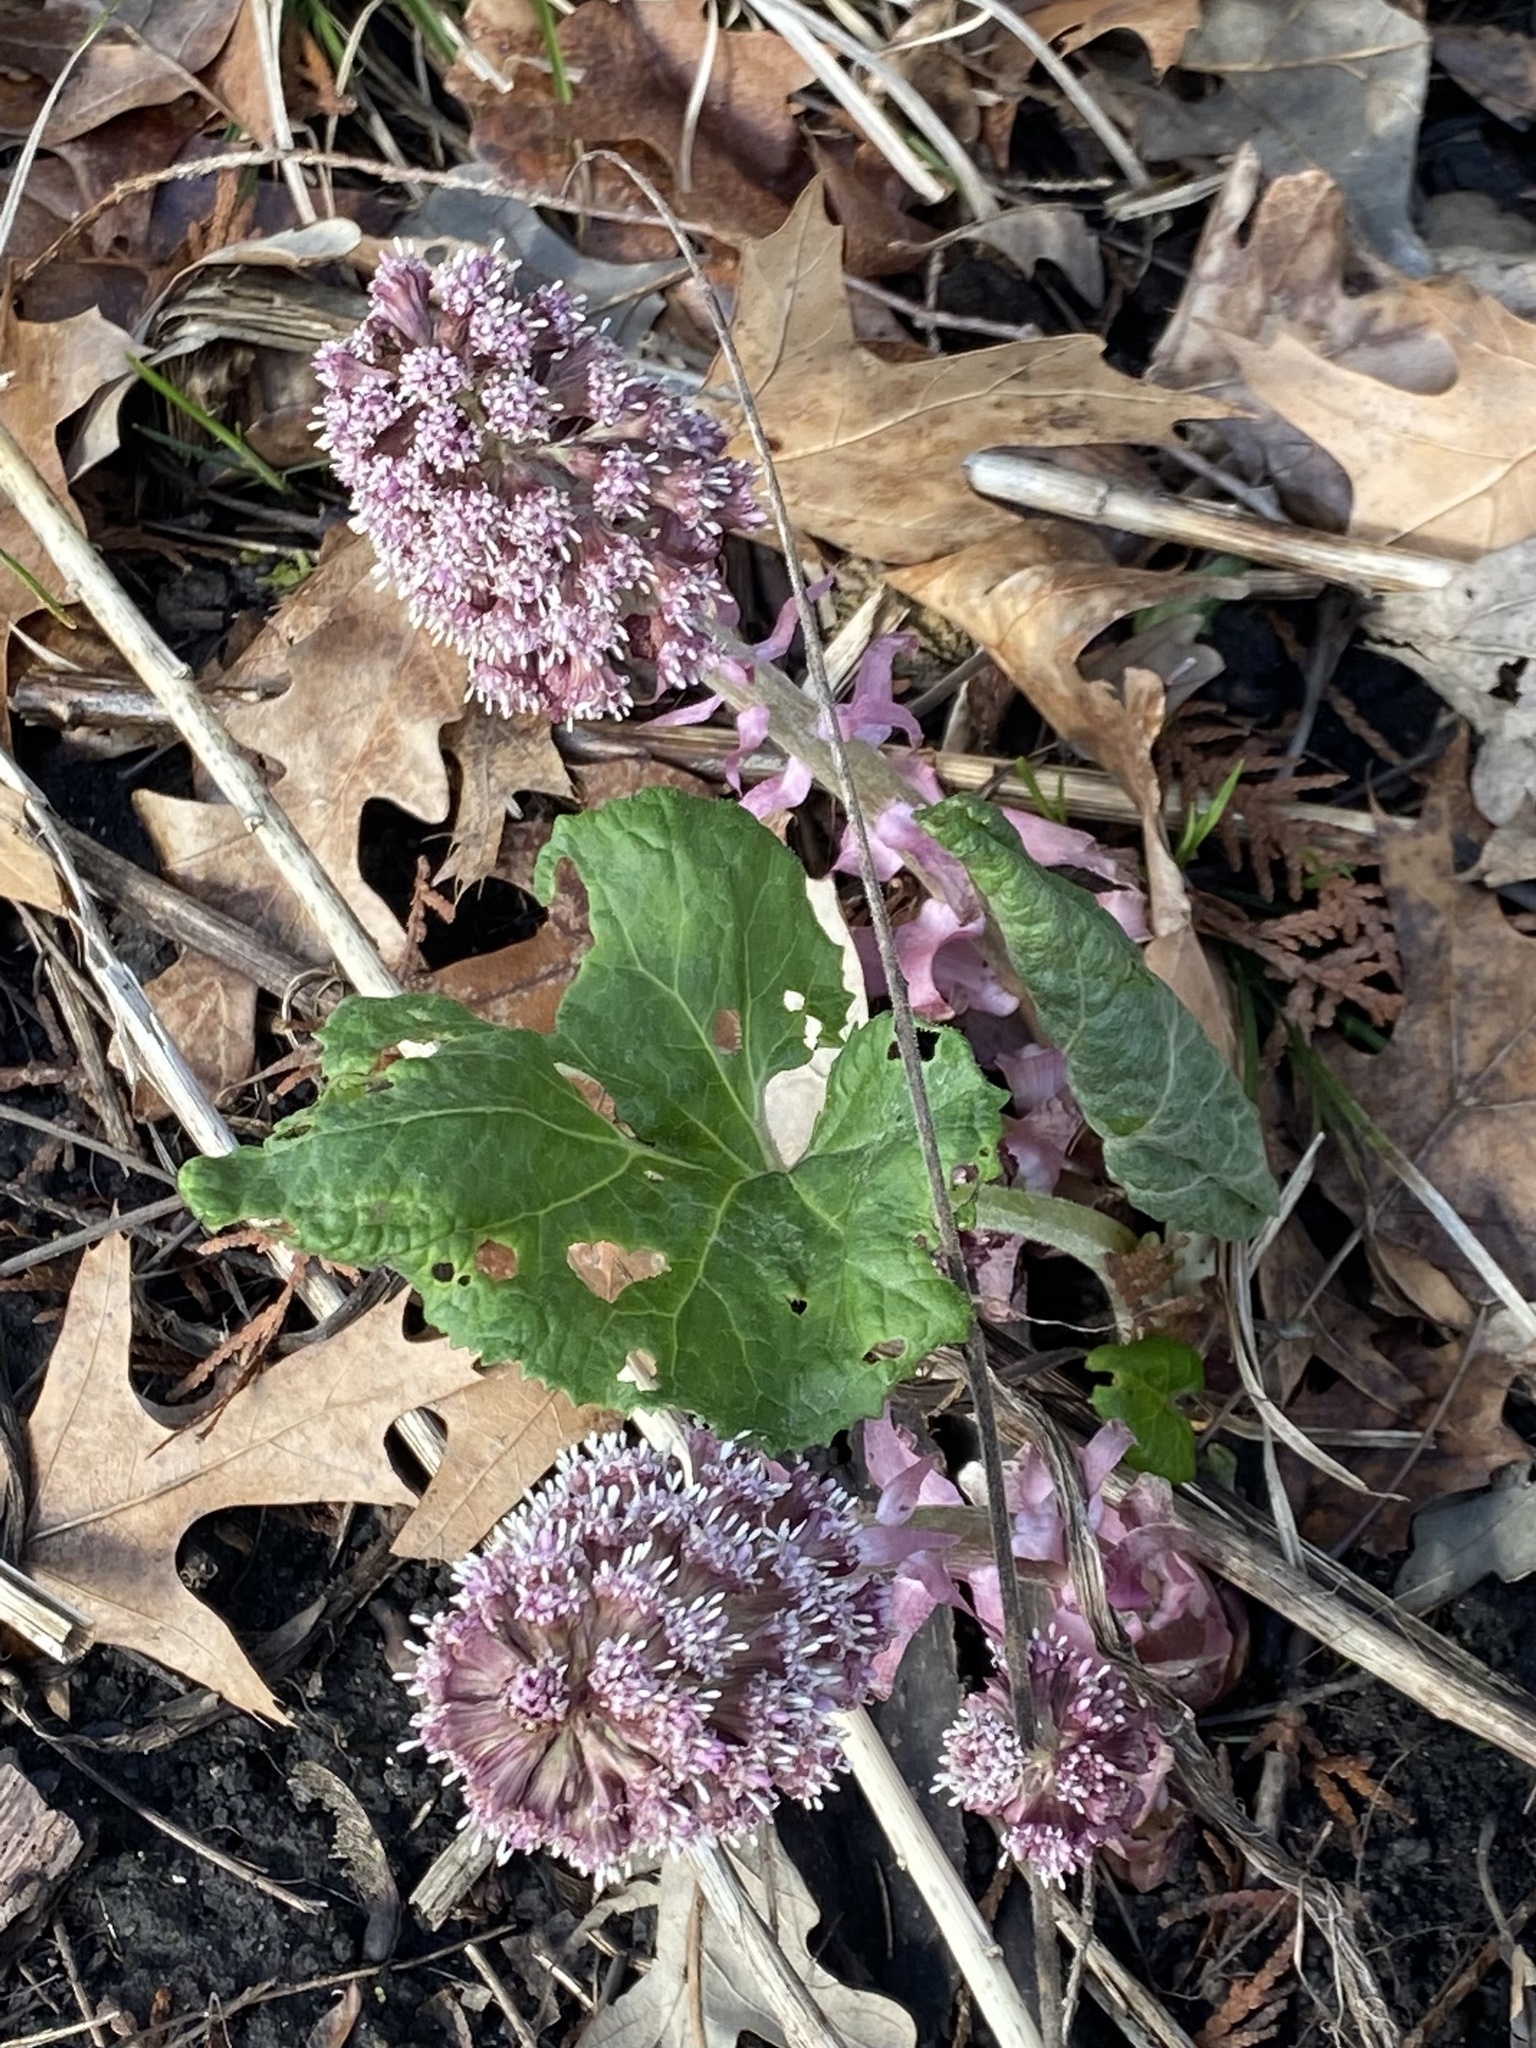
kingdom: Plantae
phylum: Tracheophyta
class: Magnoliopsida
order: Asterales
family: Asteraceae
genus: Petasites
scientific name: Petasites hybridus
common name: Butterbur
